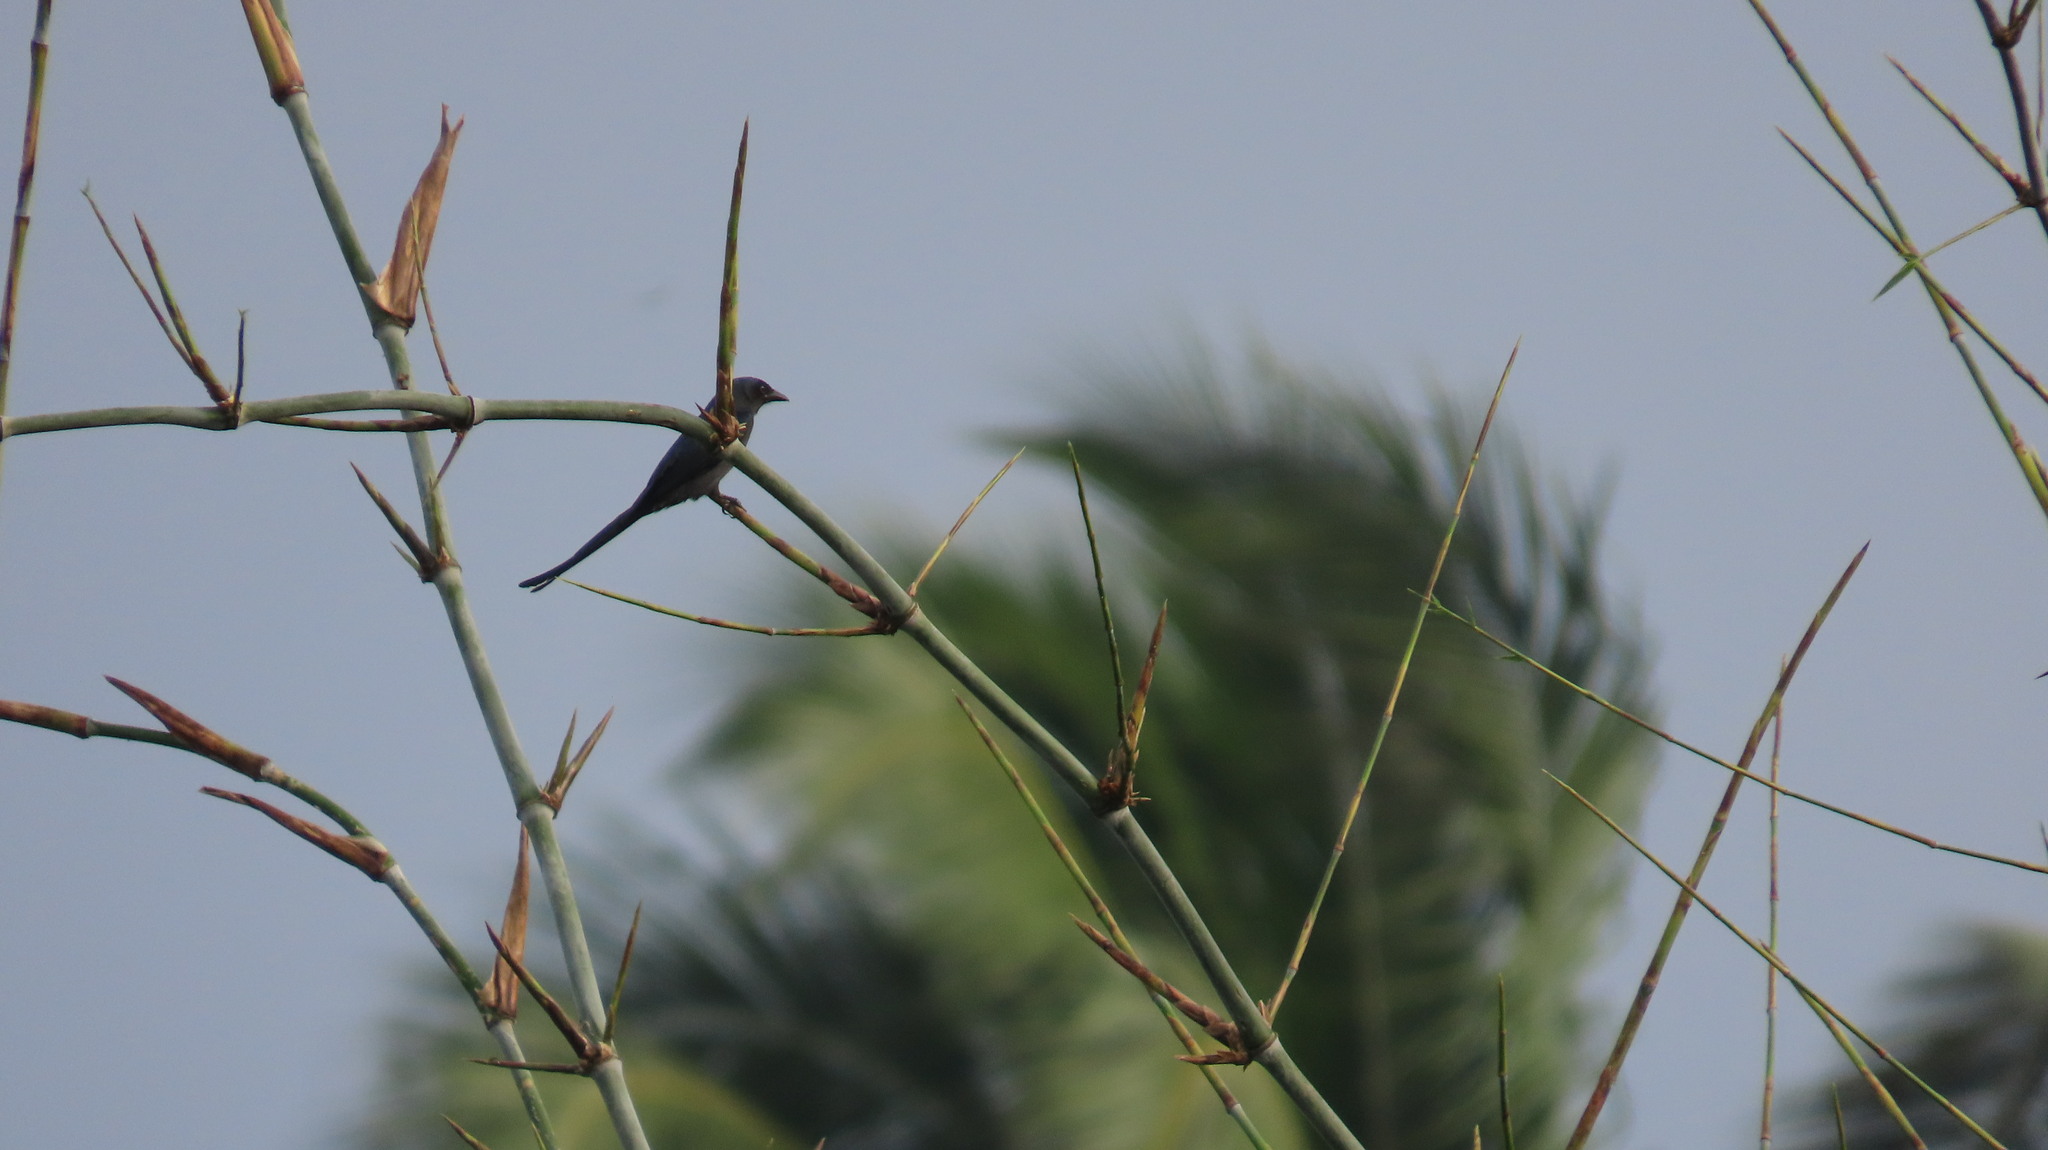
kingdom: Animalia
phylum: Chordata
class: Aves
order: Passeriformes
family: Dicruridae
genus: Dicrurus
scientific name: Dicrurus macrocercus
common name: Black drongo
